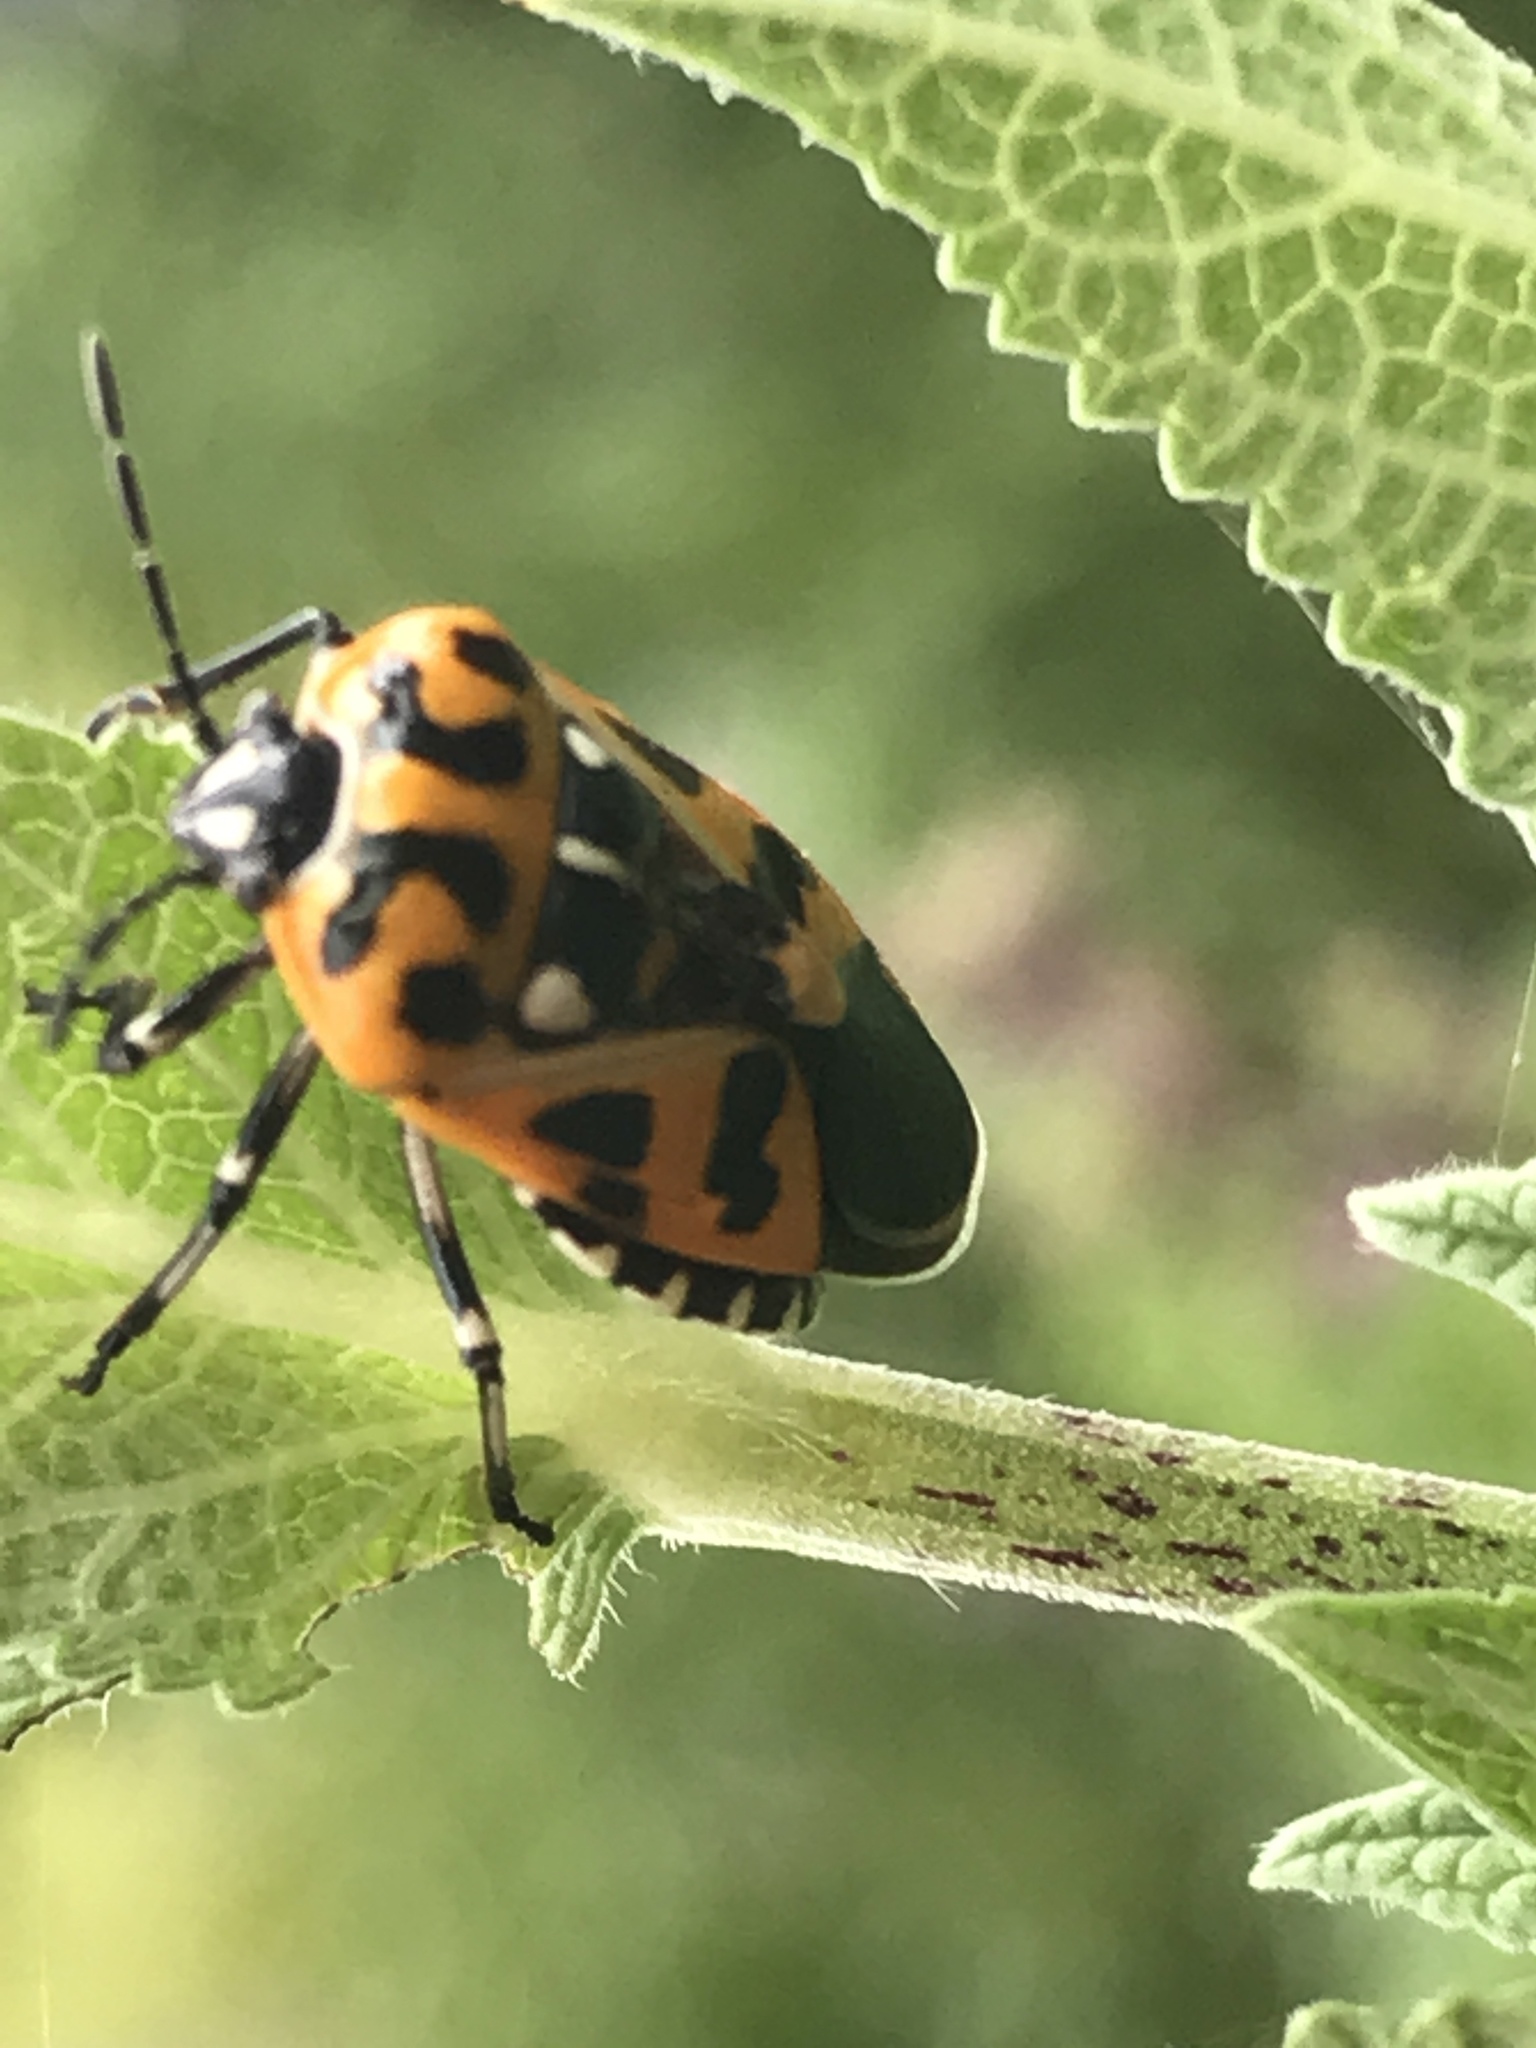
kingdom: Animalia
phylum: Arthropoda
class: Insecta
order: Hemiptera
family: Pentatomidae
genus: Murgantia
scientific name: Murgantia histrionica
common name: Harlequin bug
